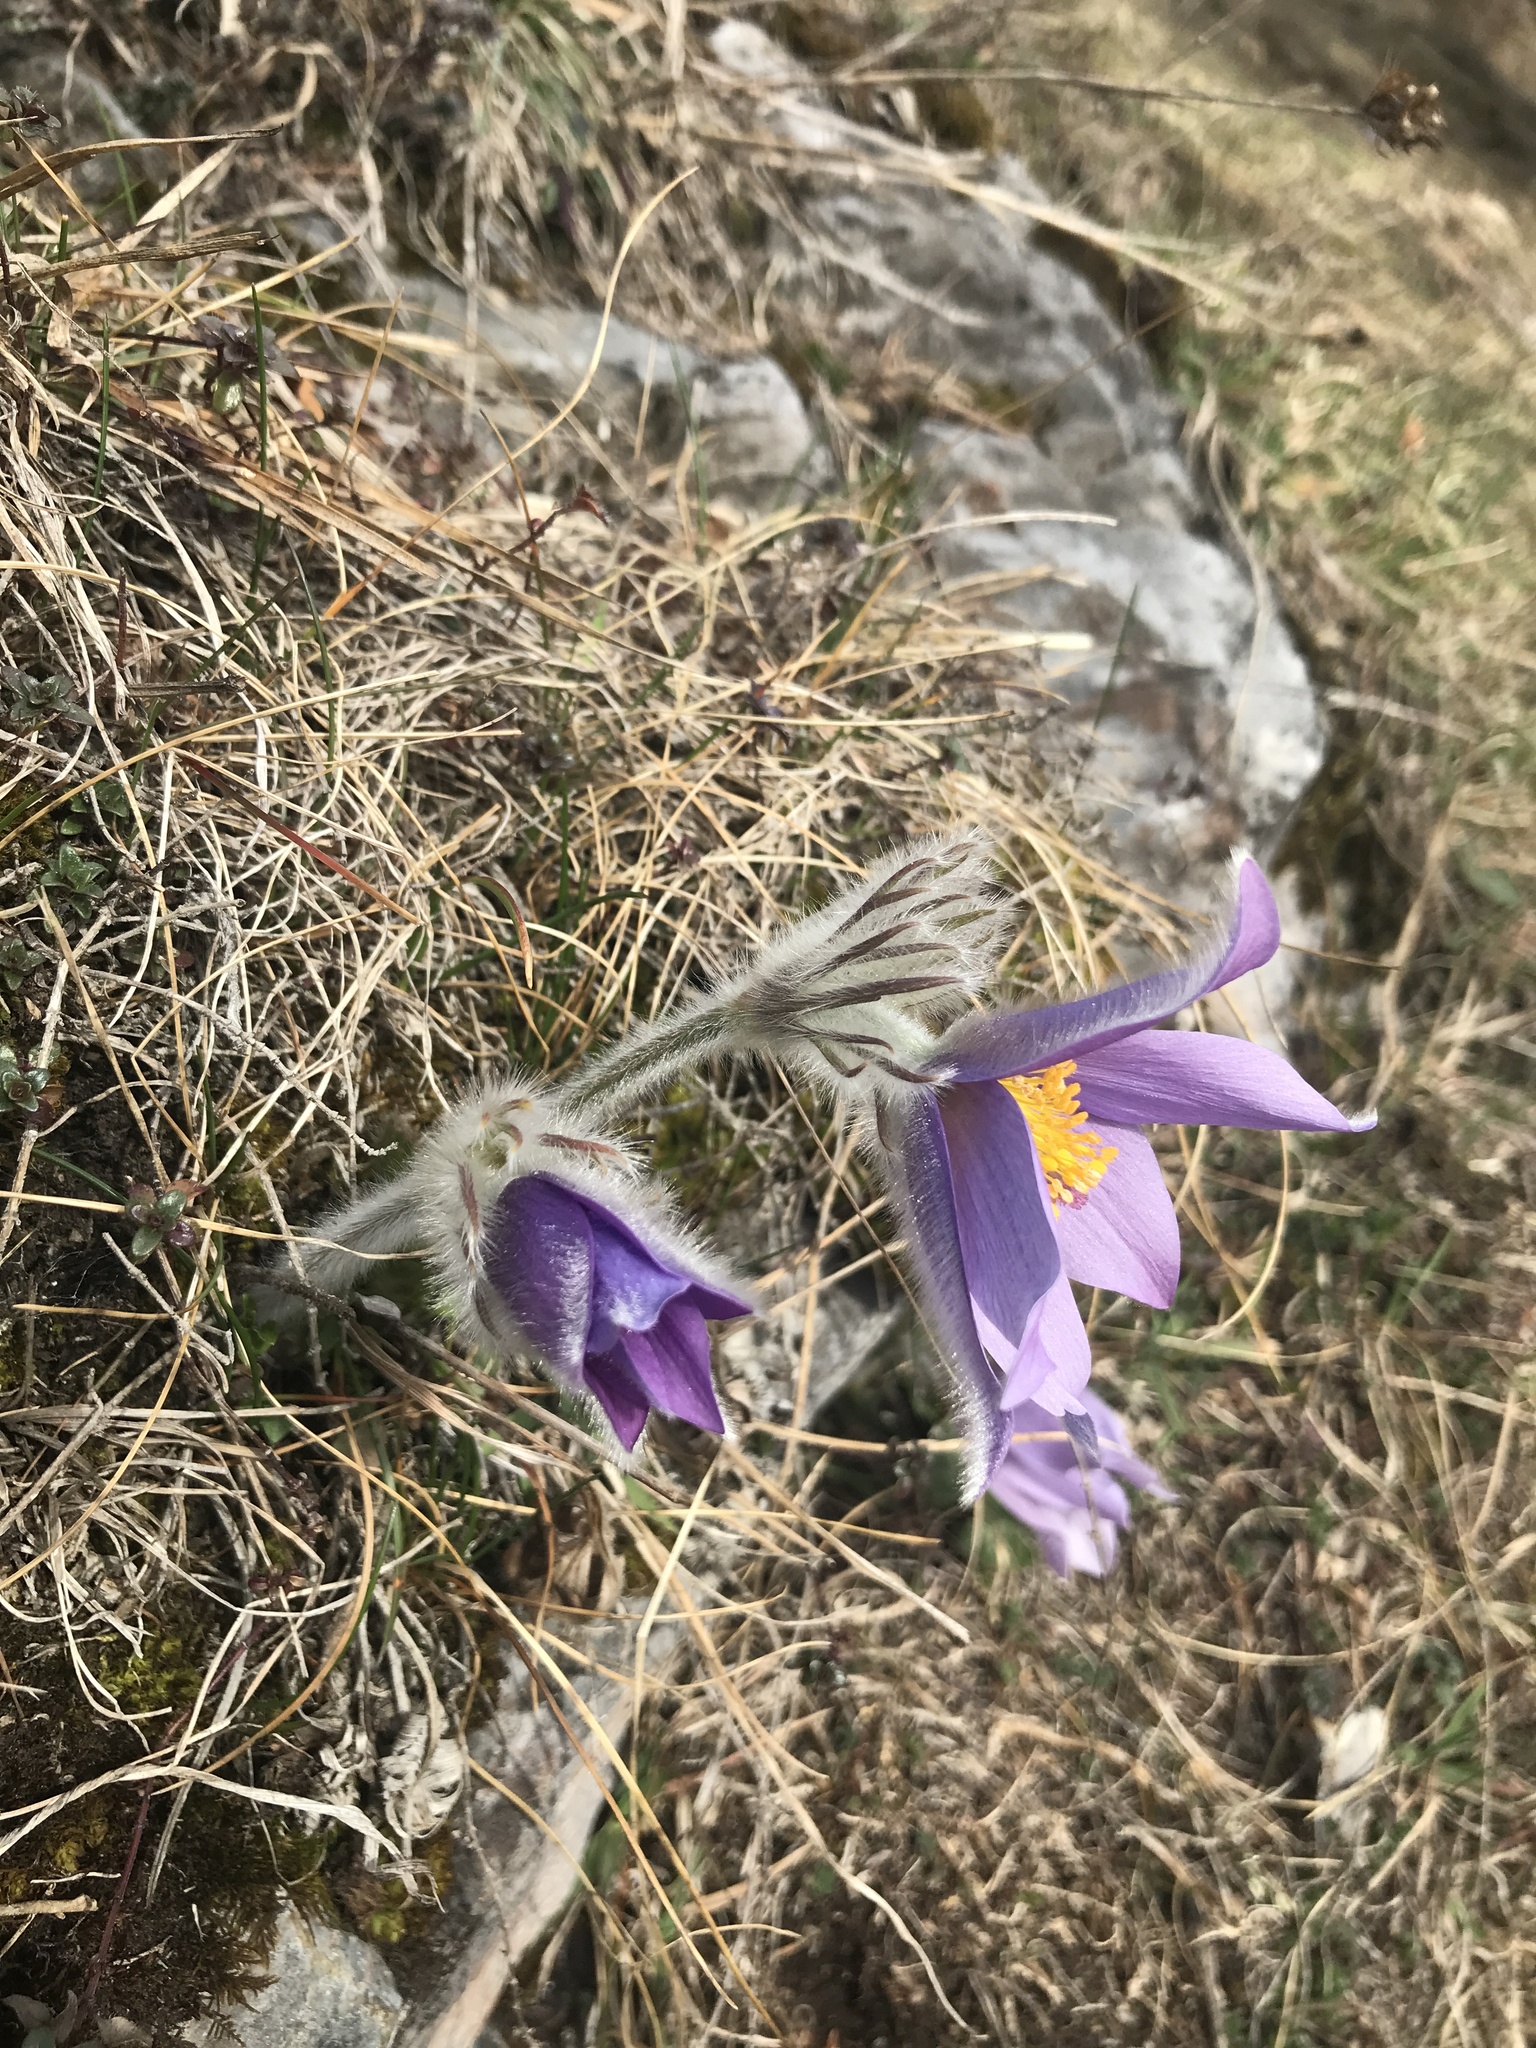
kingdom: Plantae
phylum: Tracheophyta
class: Magnoliopsida
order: Ranunculales
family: Ranunculaceae
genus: Pulsatilla
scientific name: Pulsatilla halleri
